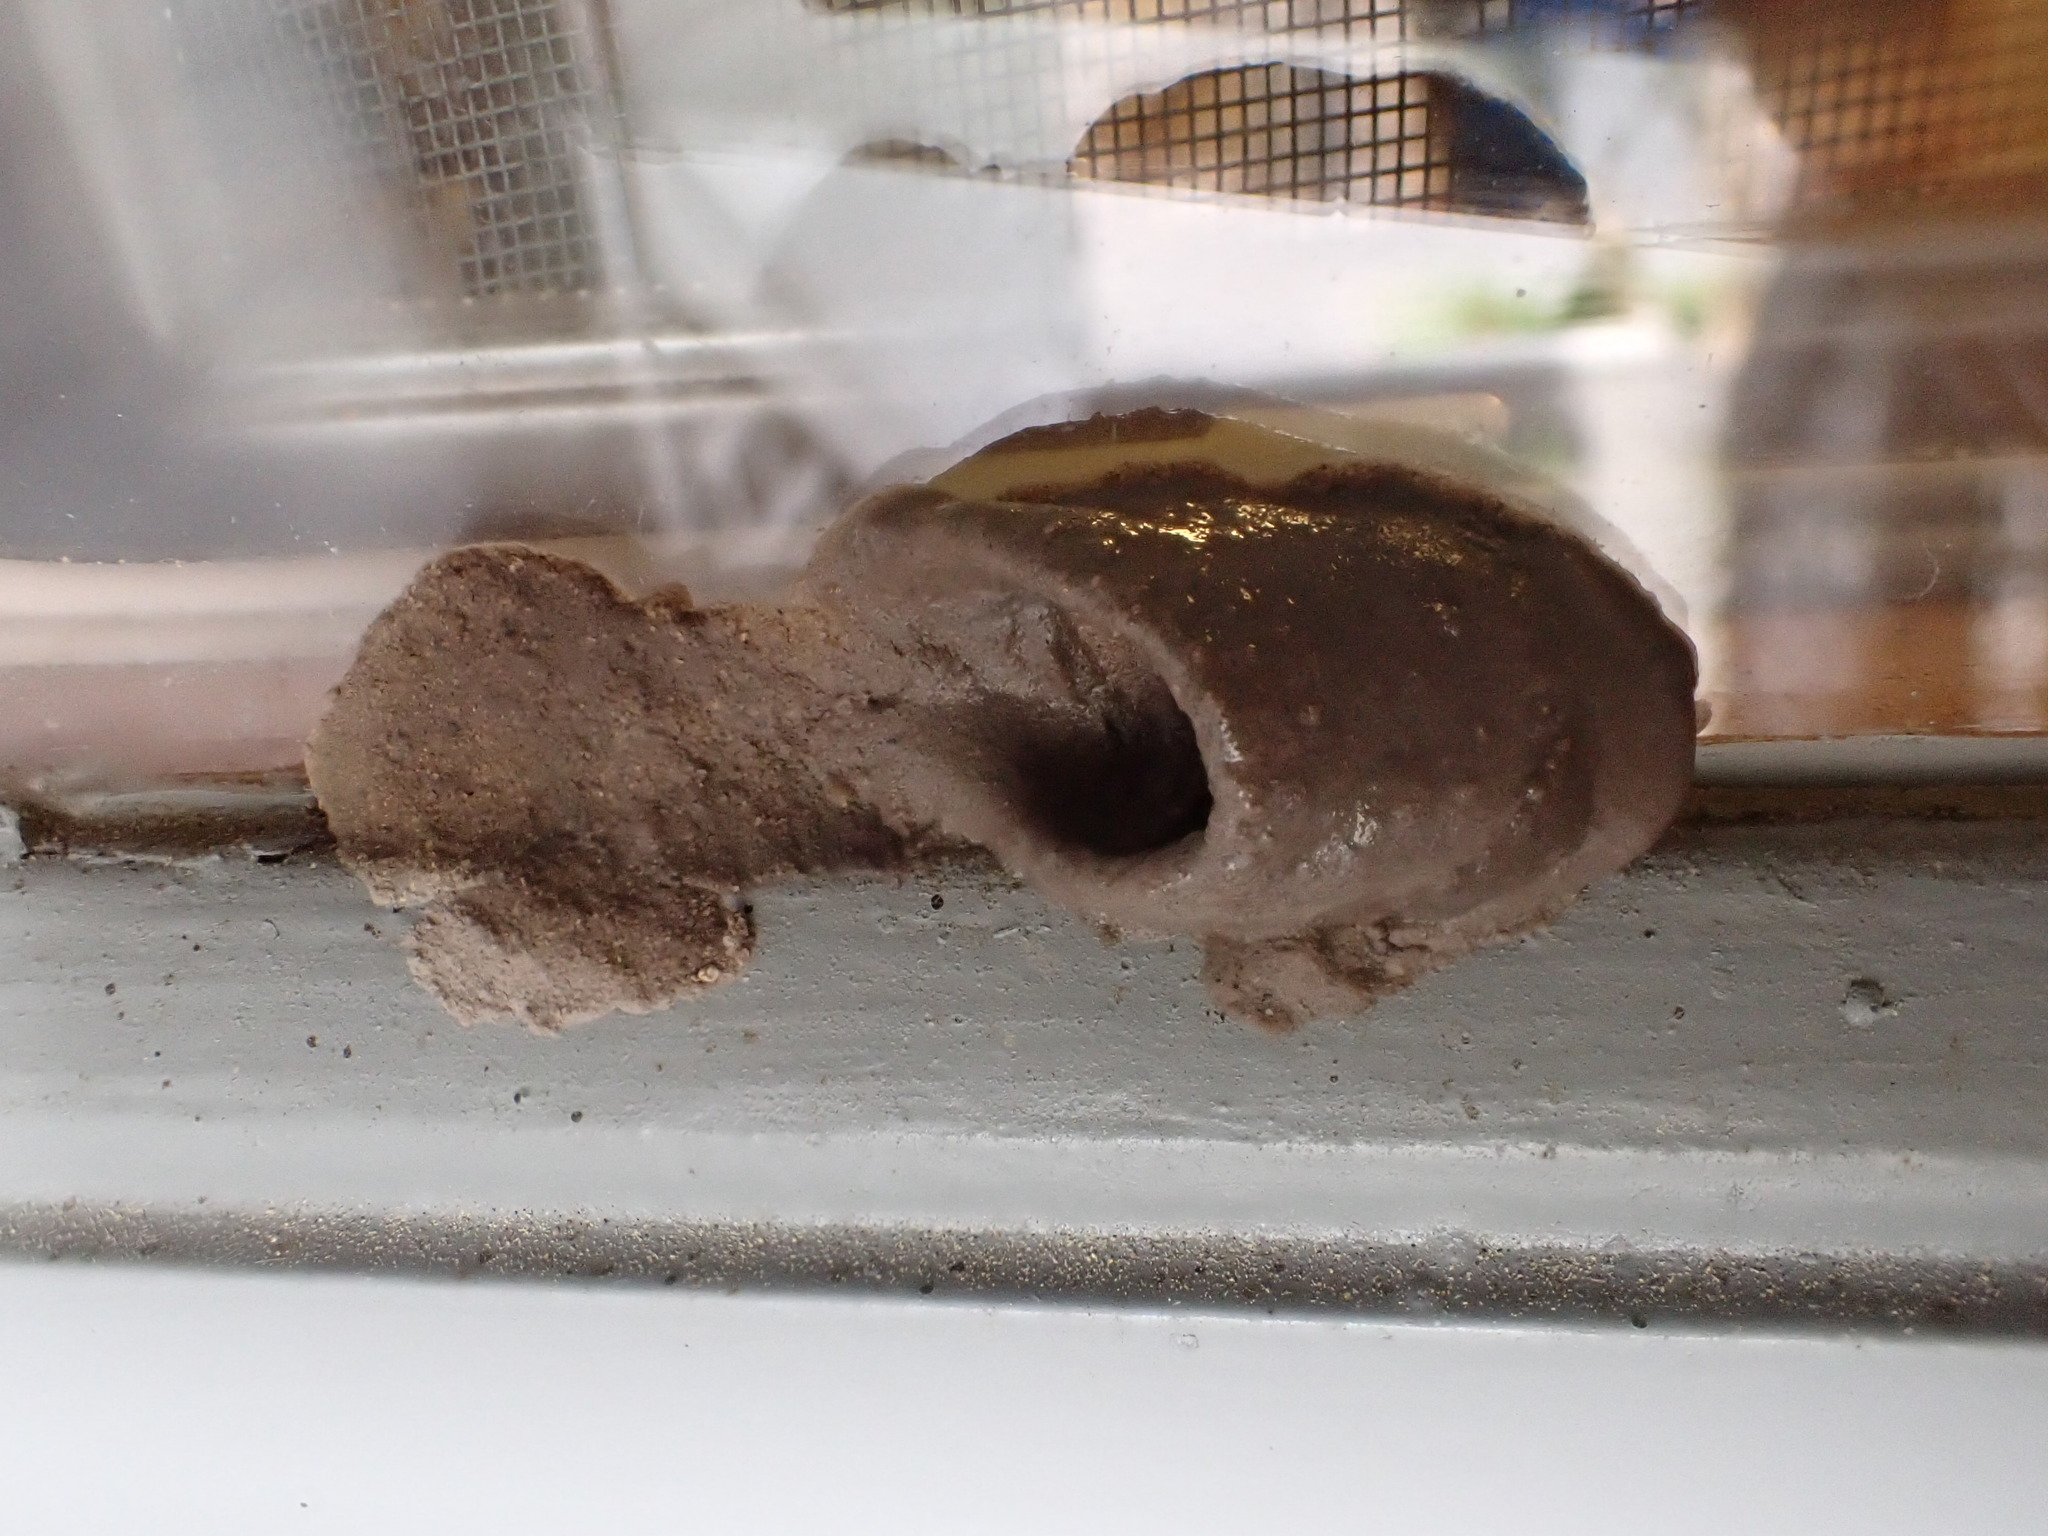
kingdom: Animalia
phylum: Arthropoda
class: Insecta
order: Hymenoptera
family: Sphecidae
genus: Sceliphron
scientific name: Sceliphron caementarium
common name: Mud dauber
